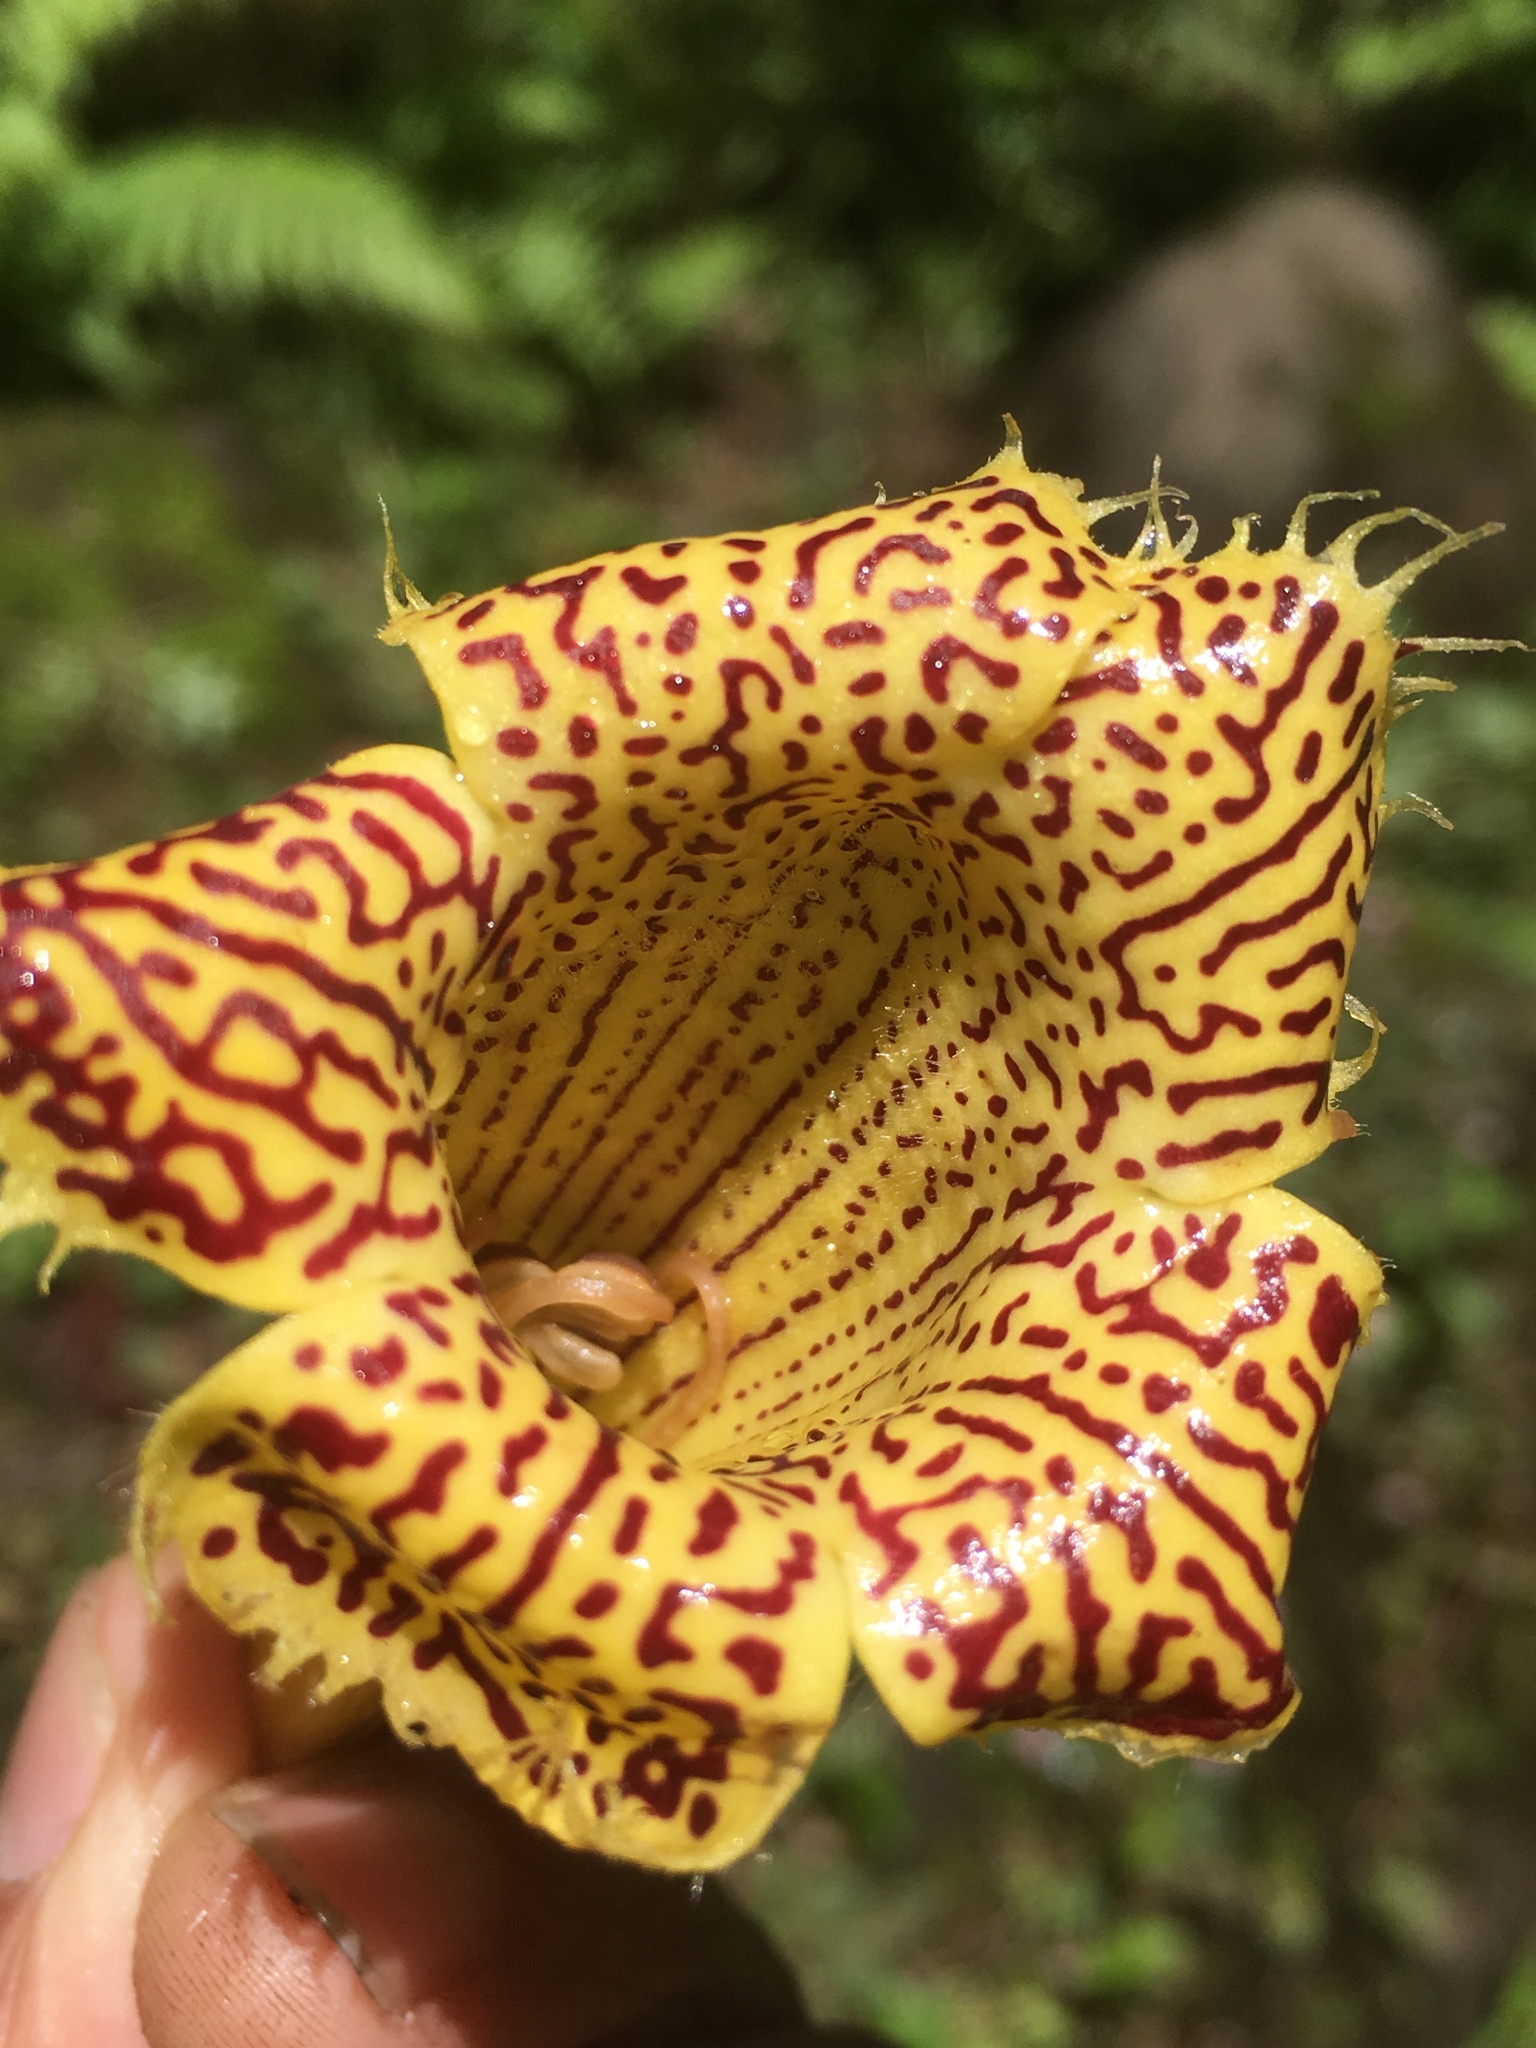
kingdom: Plantae
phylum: Tracheophyta
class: Magnoliopsida
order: Lamiales
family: Gesneriaceae
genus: Solenophora
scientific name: Solenophora insignis
